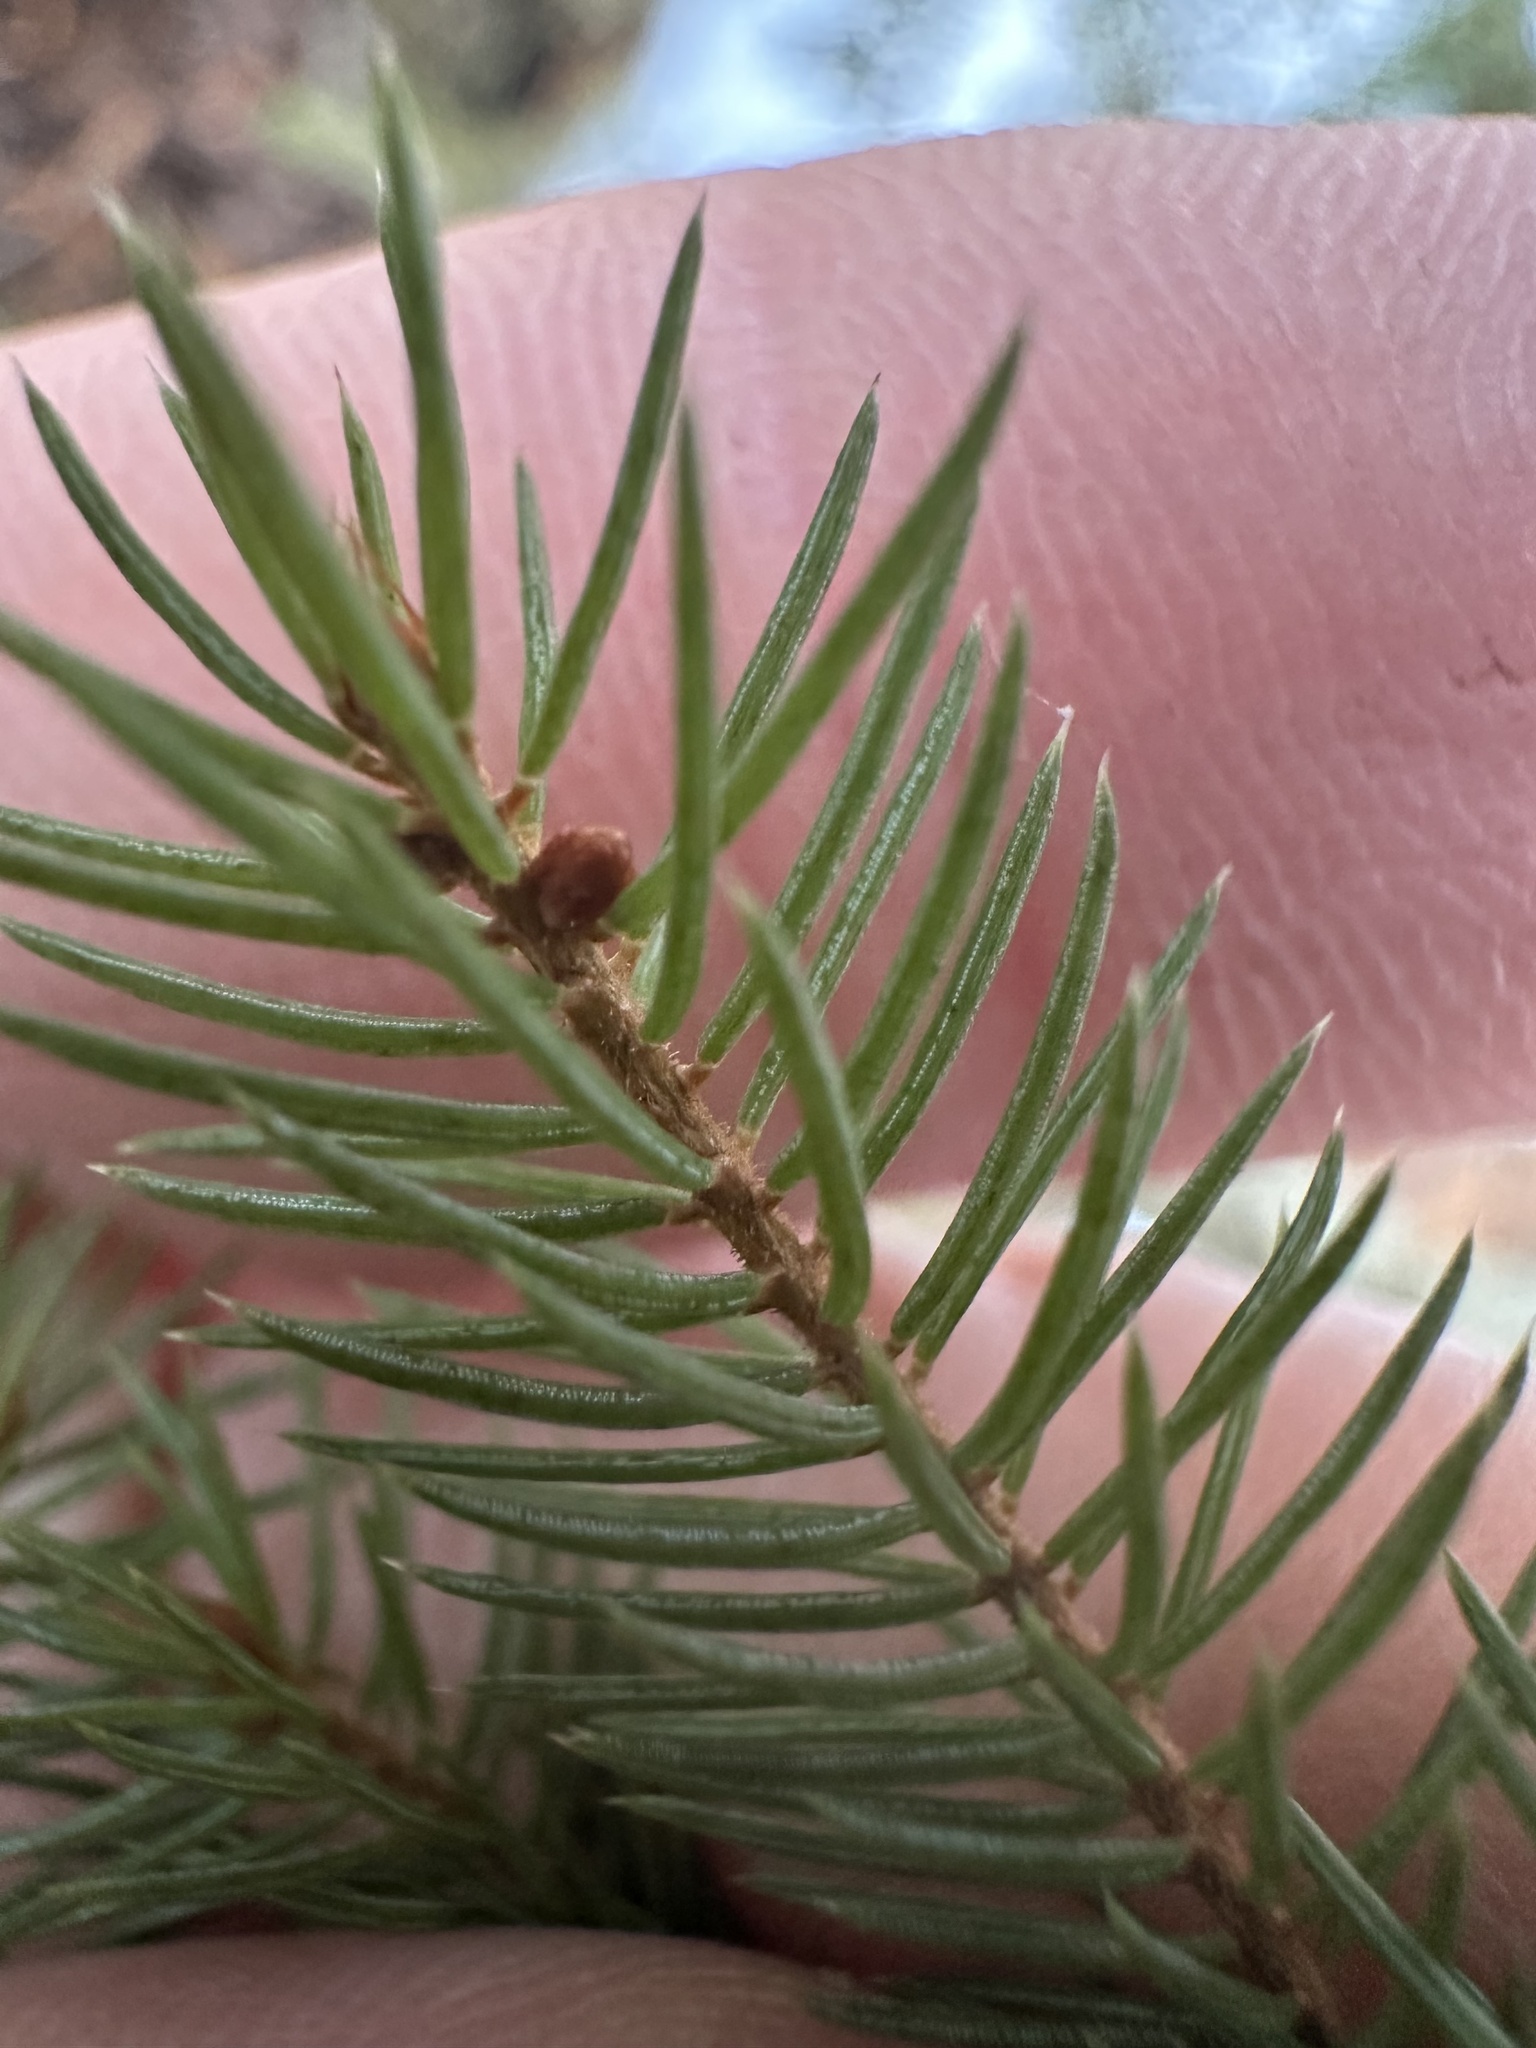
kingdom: Plantae
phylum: Tracheophyta
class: Pinopsida
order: Pinales
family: Pinaceae
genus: Picea
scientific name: Picea mariana
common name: Black spruce
